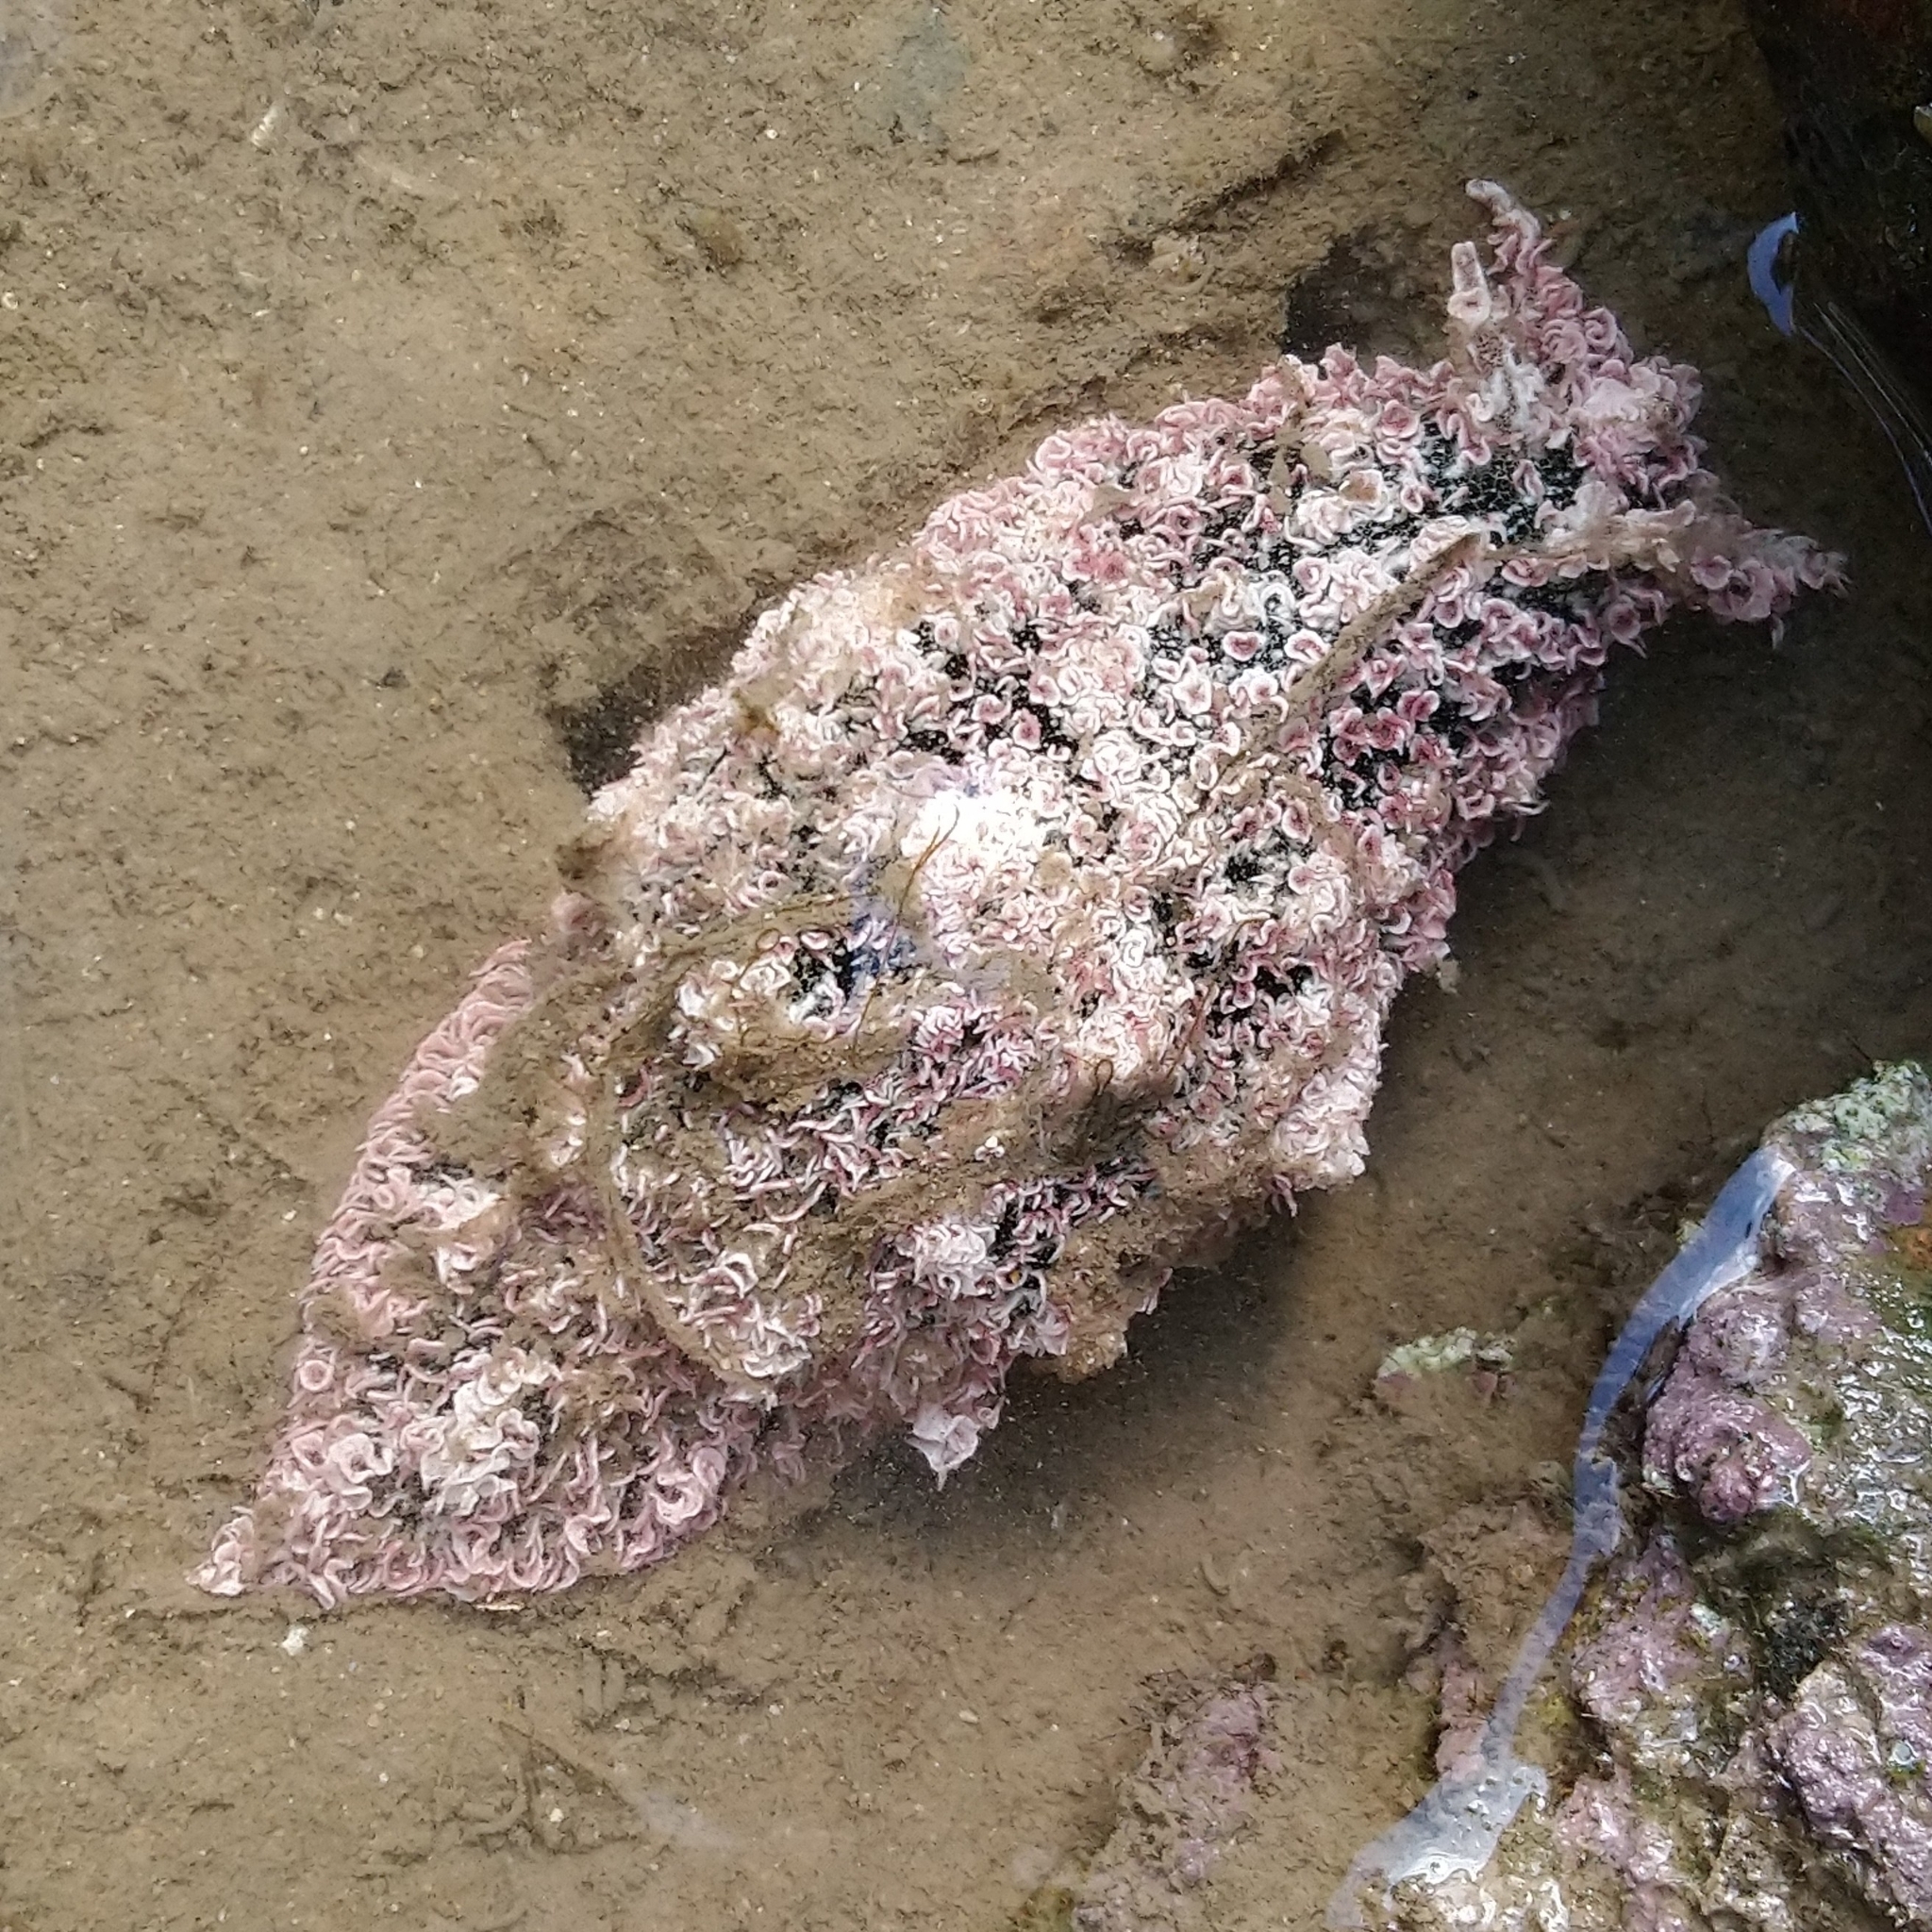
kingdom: Animalia
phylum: Mollusca
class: Gastropoda
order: Aplysiida
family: Aplysiidae
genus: Bursatella
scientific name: Bursatella leachii
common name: Shaggy sea hare
